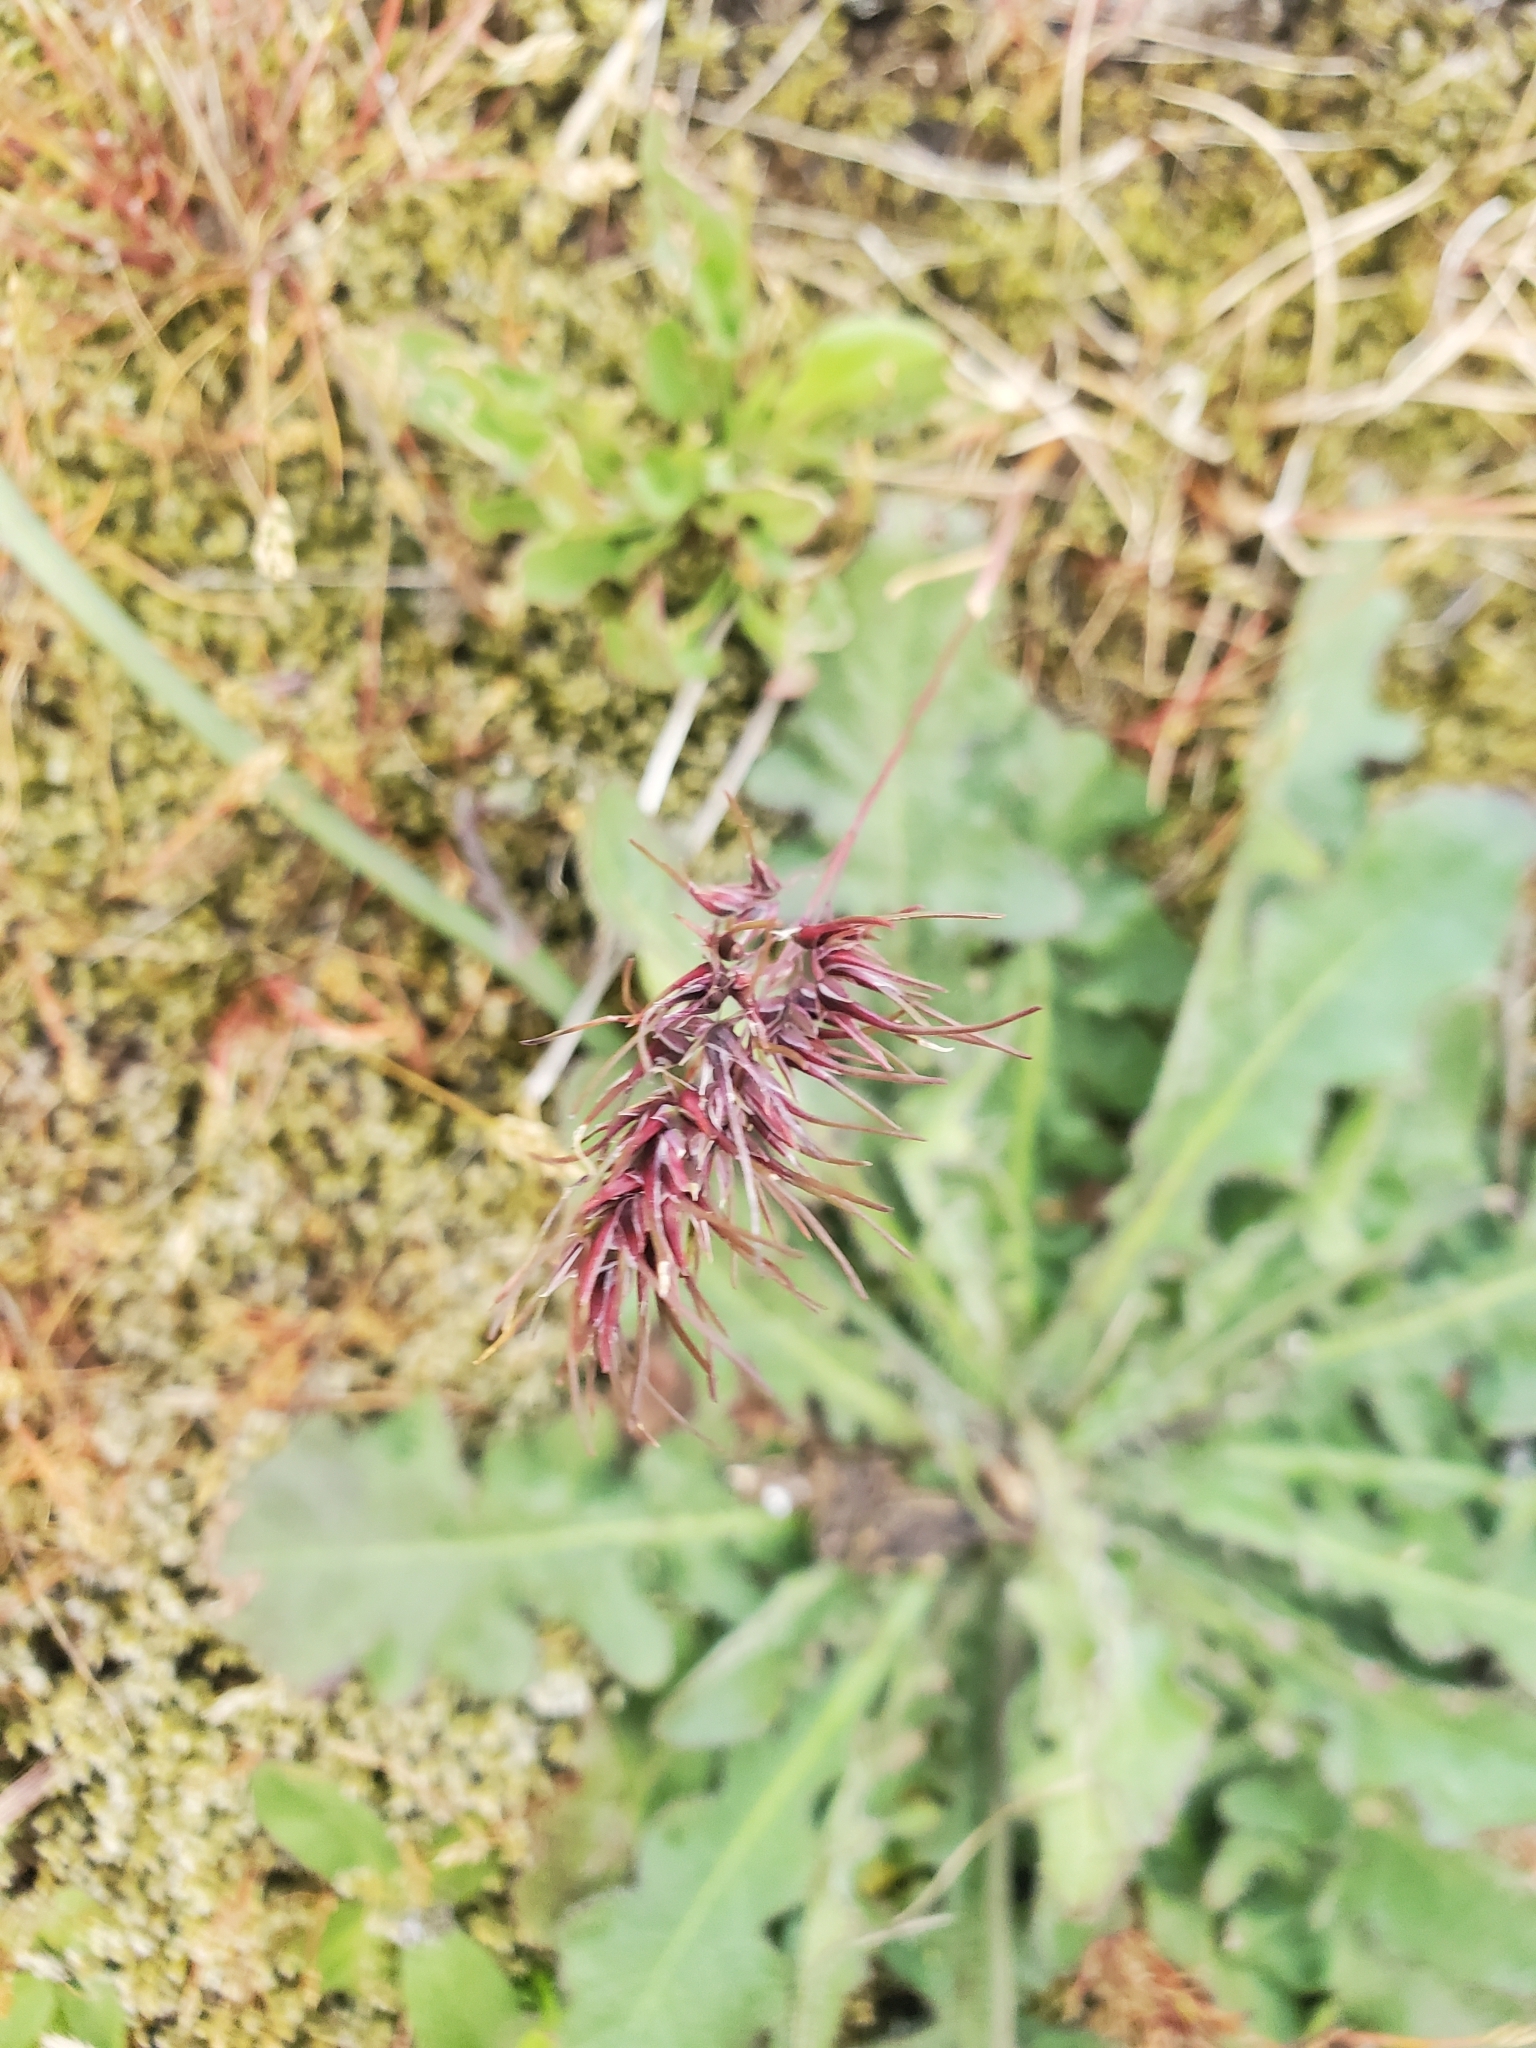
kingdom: Plantae
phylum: Tracheophyta
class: Liliopsida
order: Poales
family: Poaceae
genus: Poa
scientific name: Poa bulbosa
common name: Bulbous bluegrass
